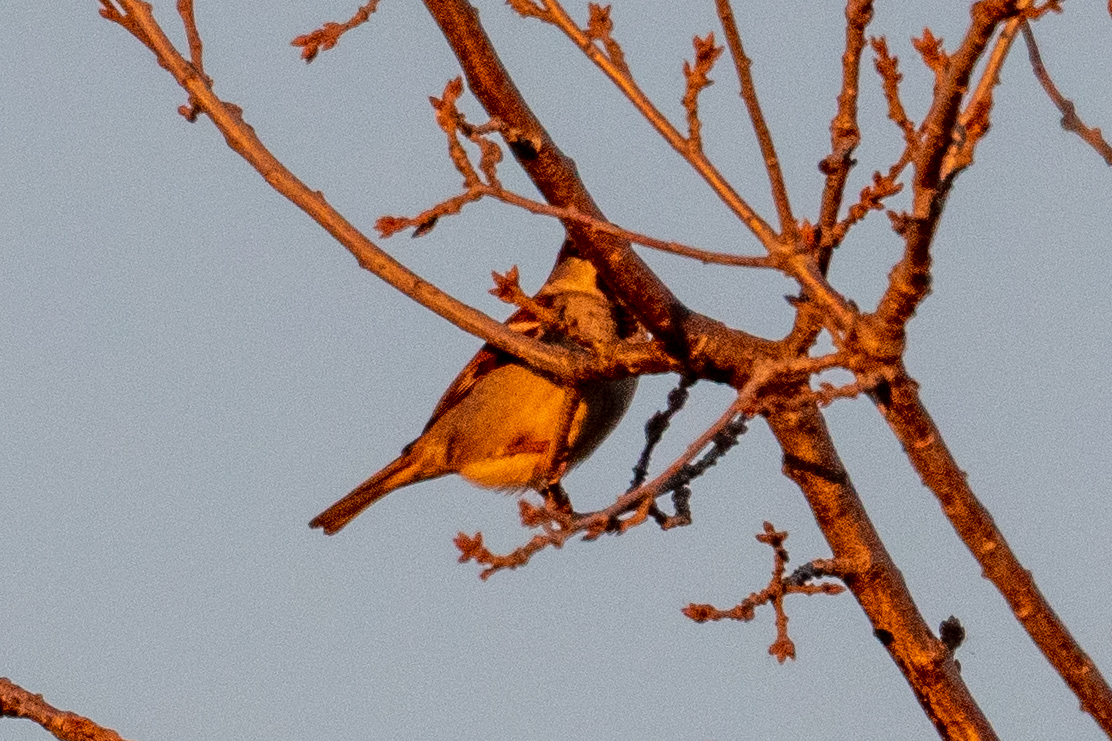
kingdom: Animalia
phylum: Chordata
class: Aves
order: Passeriformes
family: Passeridae
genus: Passer
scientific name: Passer domesticus
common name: House sparrow
